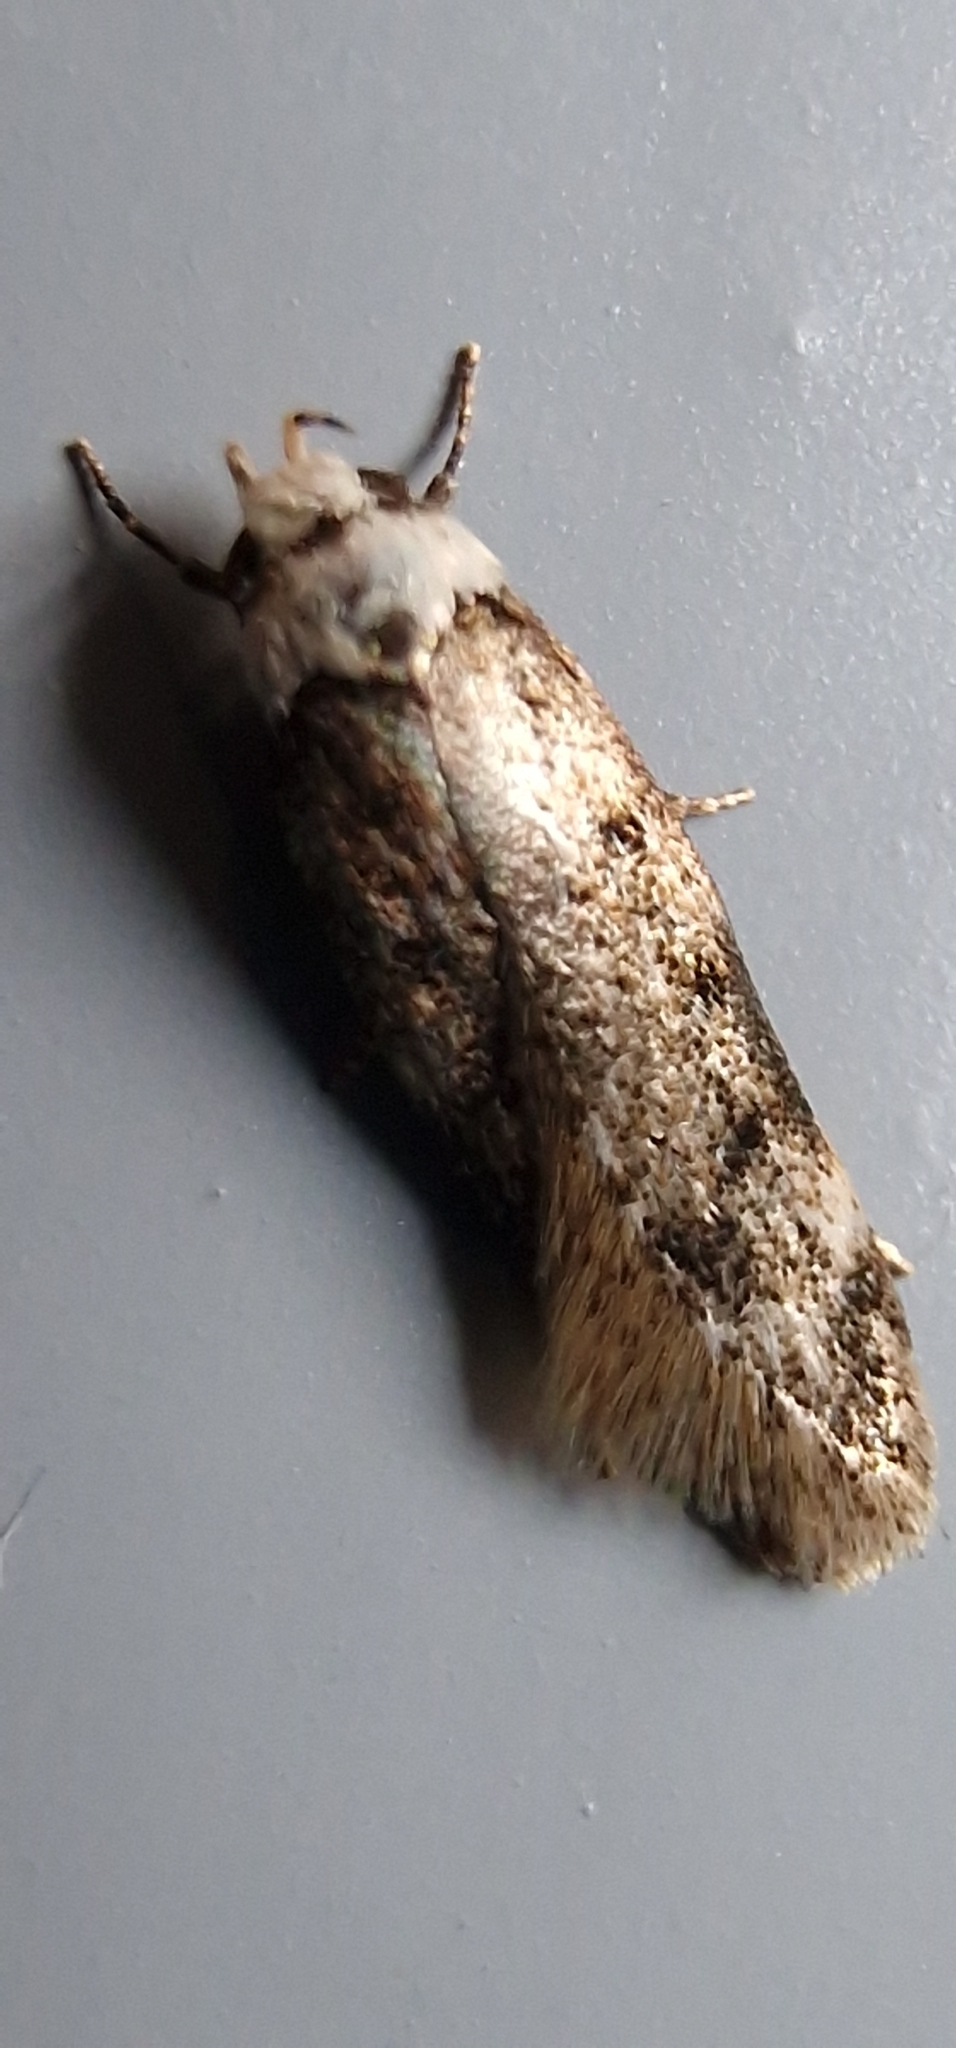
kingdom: Animalia
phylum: Arthropoda
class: Insecta
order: Lepidoptera
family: Oecophoridae
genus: Endrosis
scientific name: Endrosis sarcitrella
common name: White-shouldered house moth
